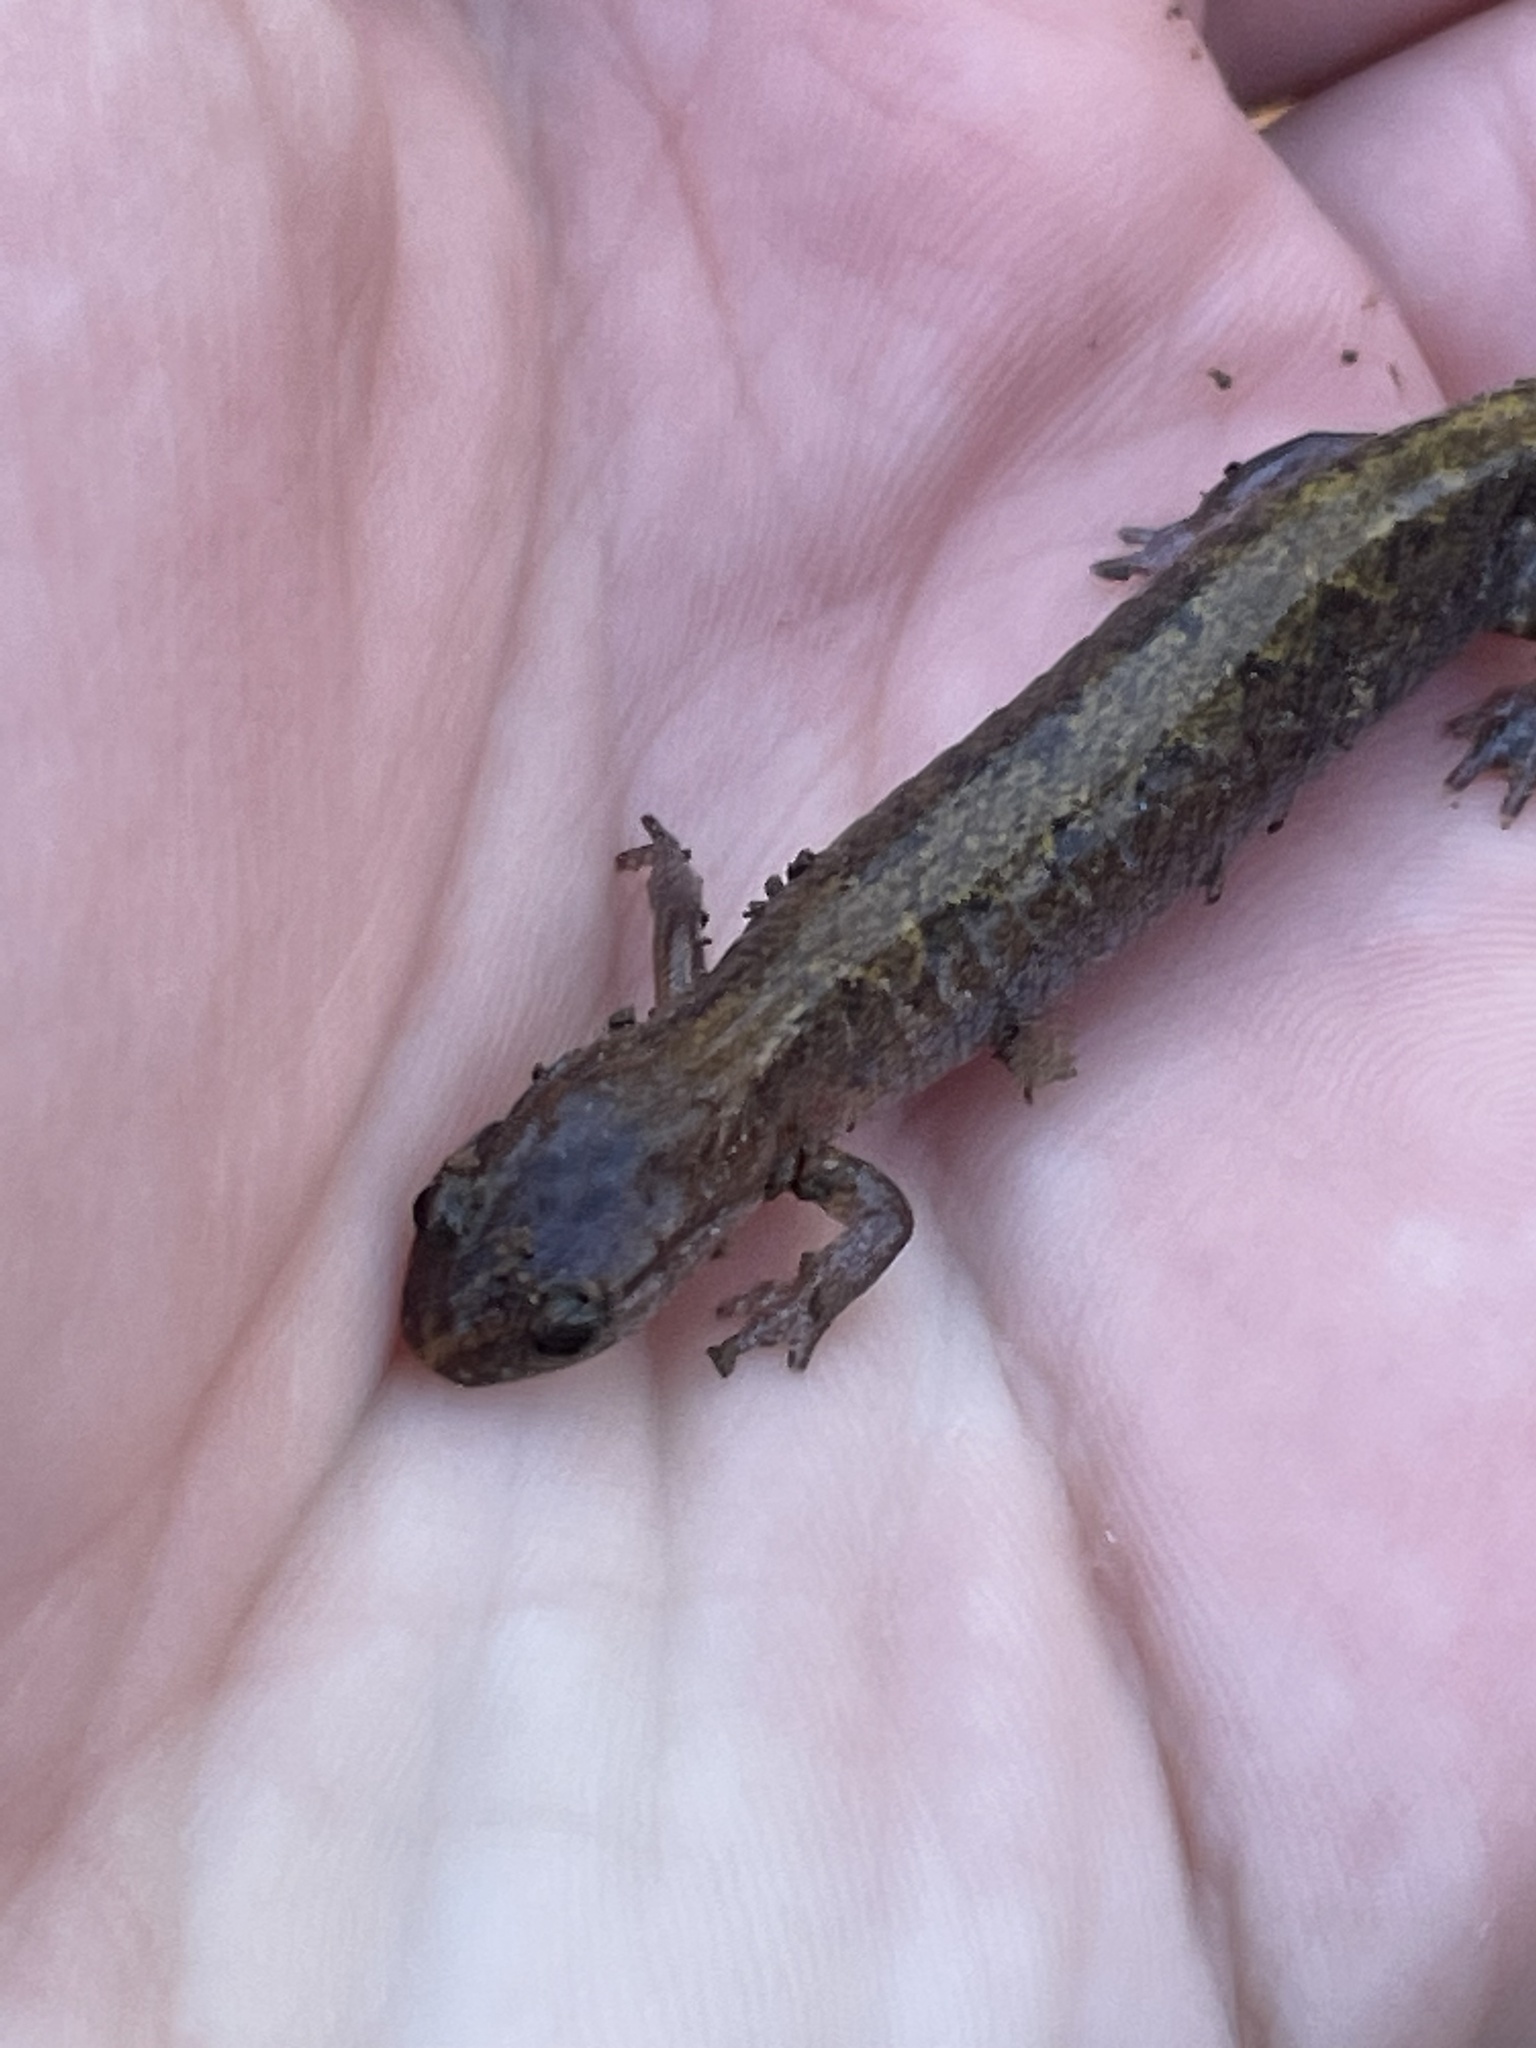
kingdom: Animalia
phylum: Chordata
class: Amphibia
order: Caudata
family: Plethodontidae
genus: Plethodon
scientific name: Plethodon dorsalis
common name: Northern zigzag salamander
